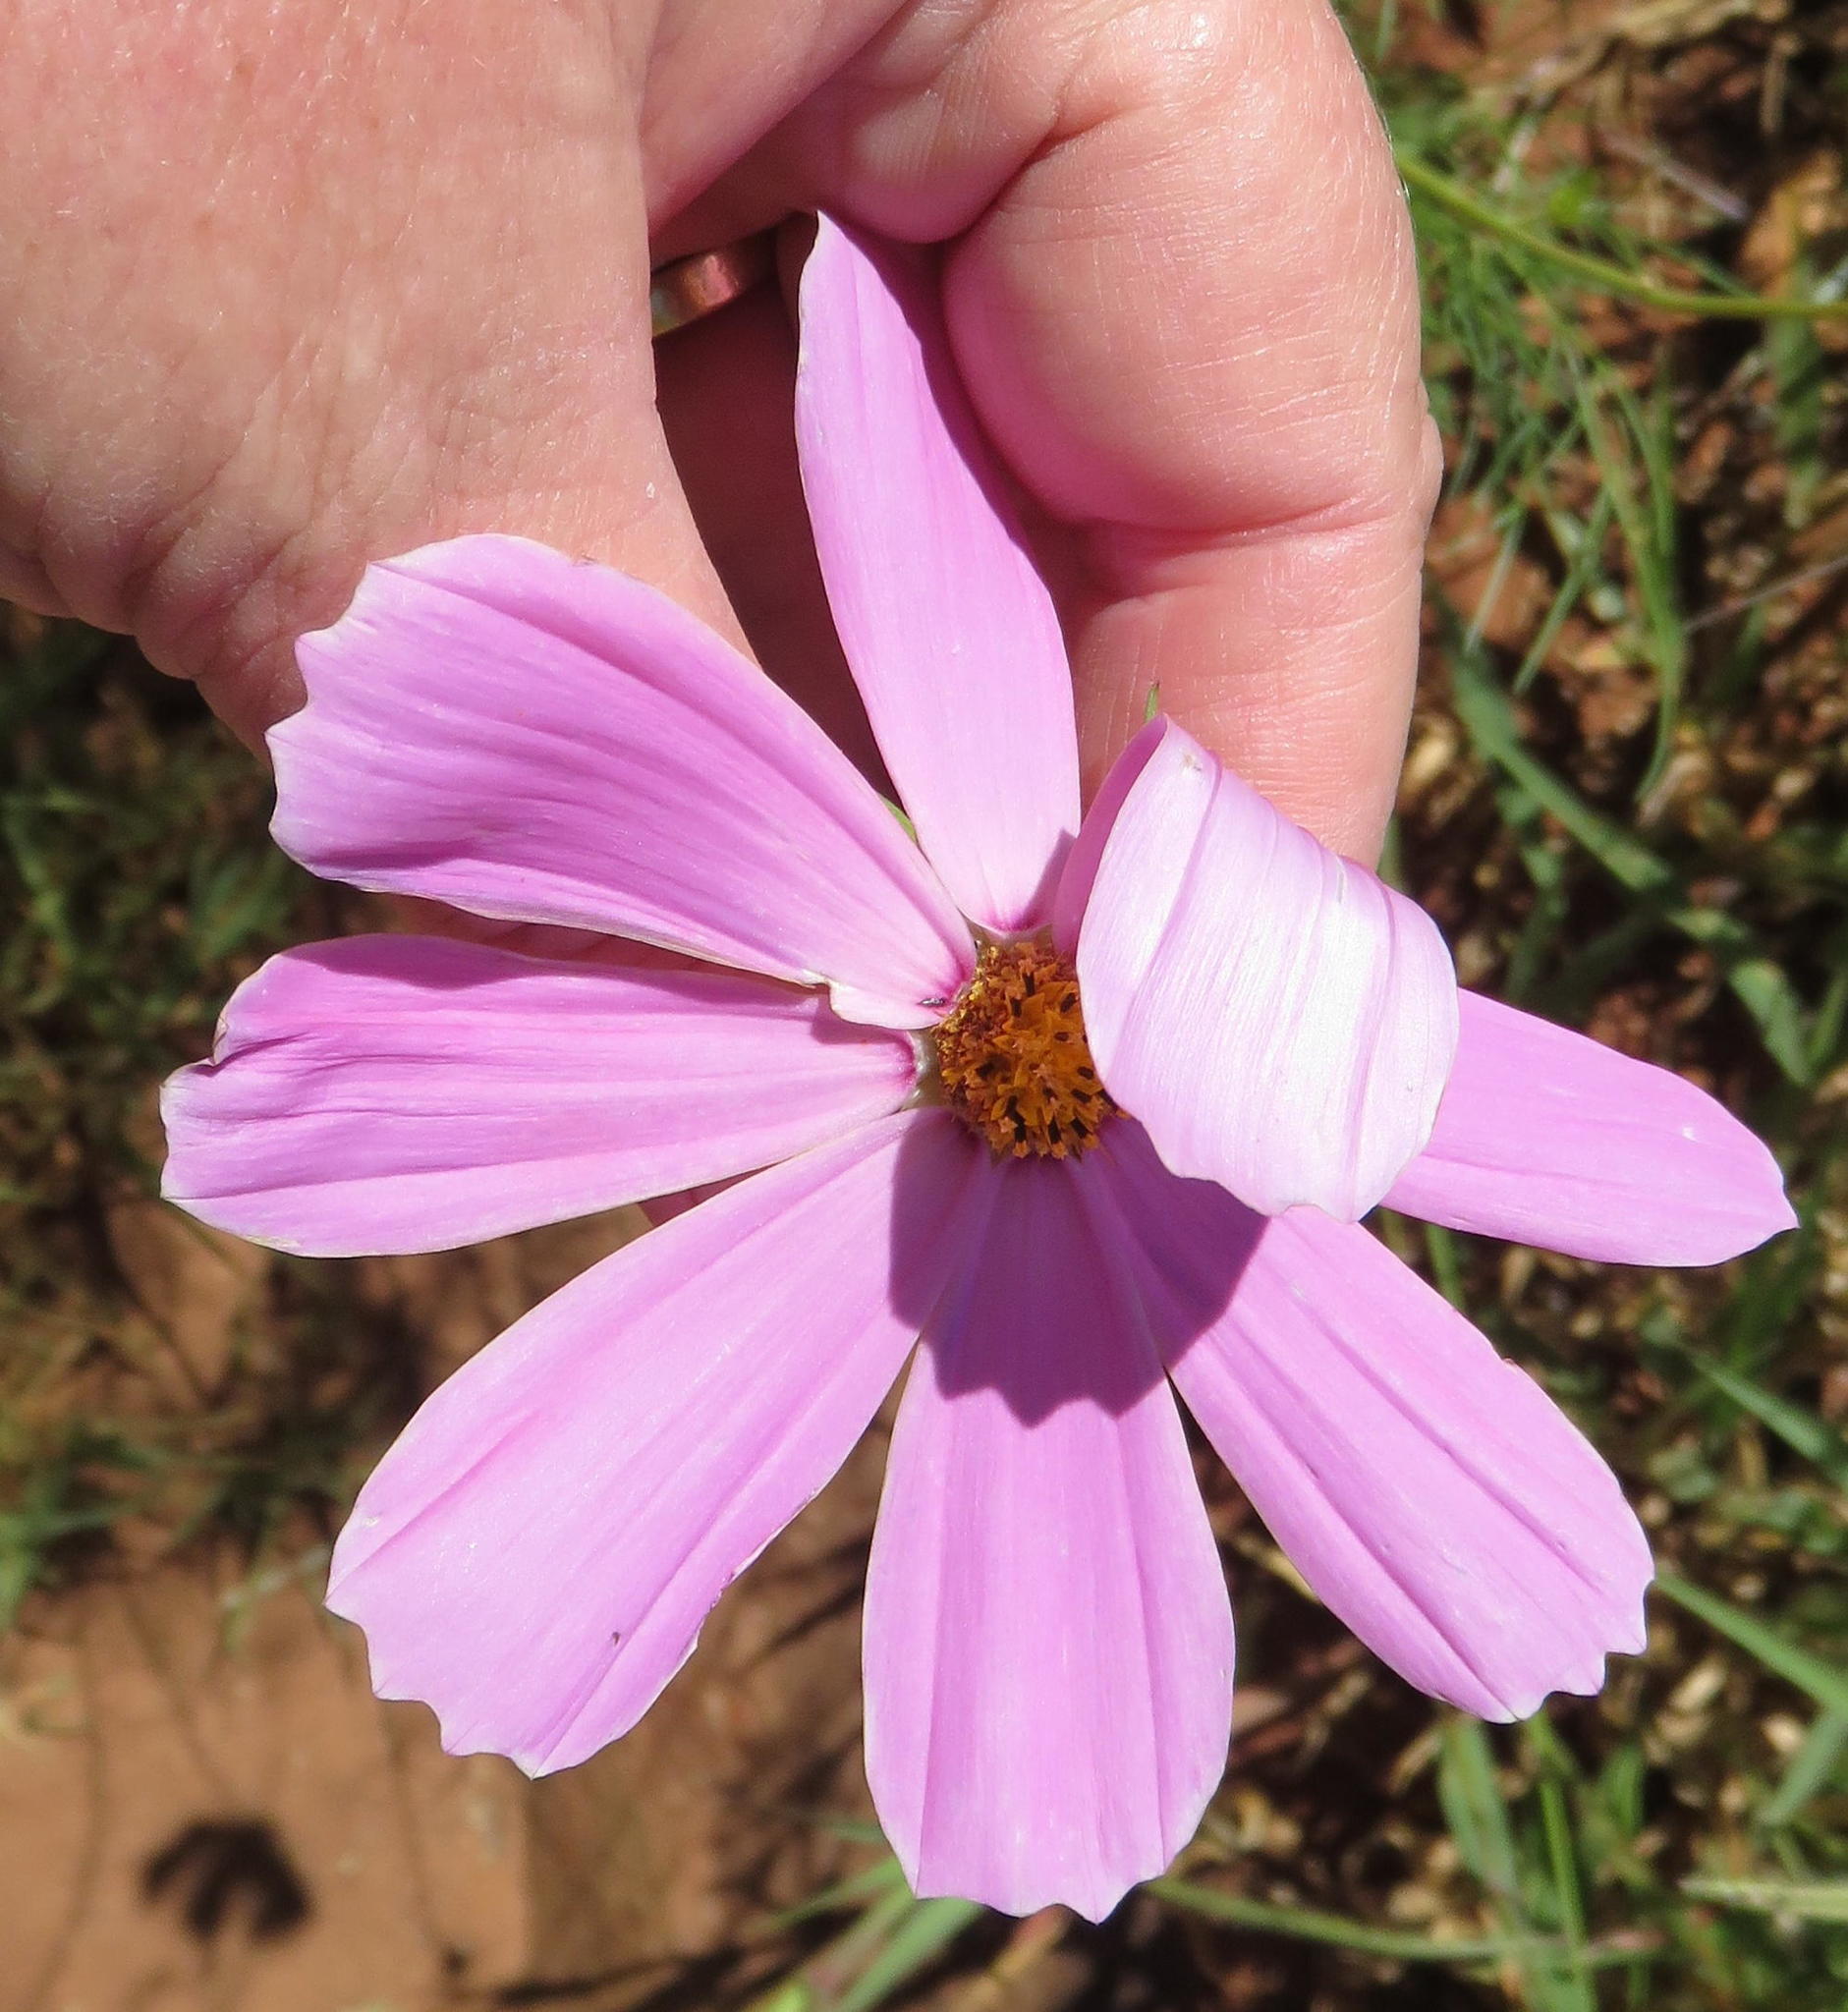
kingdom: Plantae
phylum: Tracheophyta
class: Magnoliopsida
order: Asterales
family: Asteraceae
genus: Cosmos
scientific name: Cosmos bipinnatus
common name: Garden cosmos
